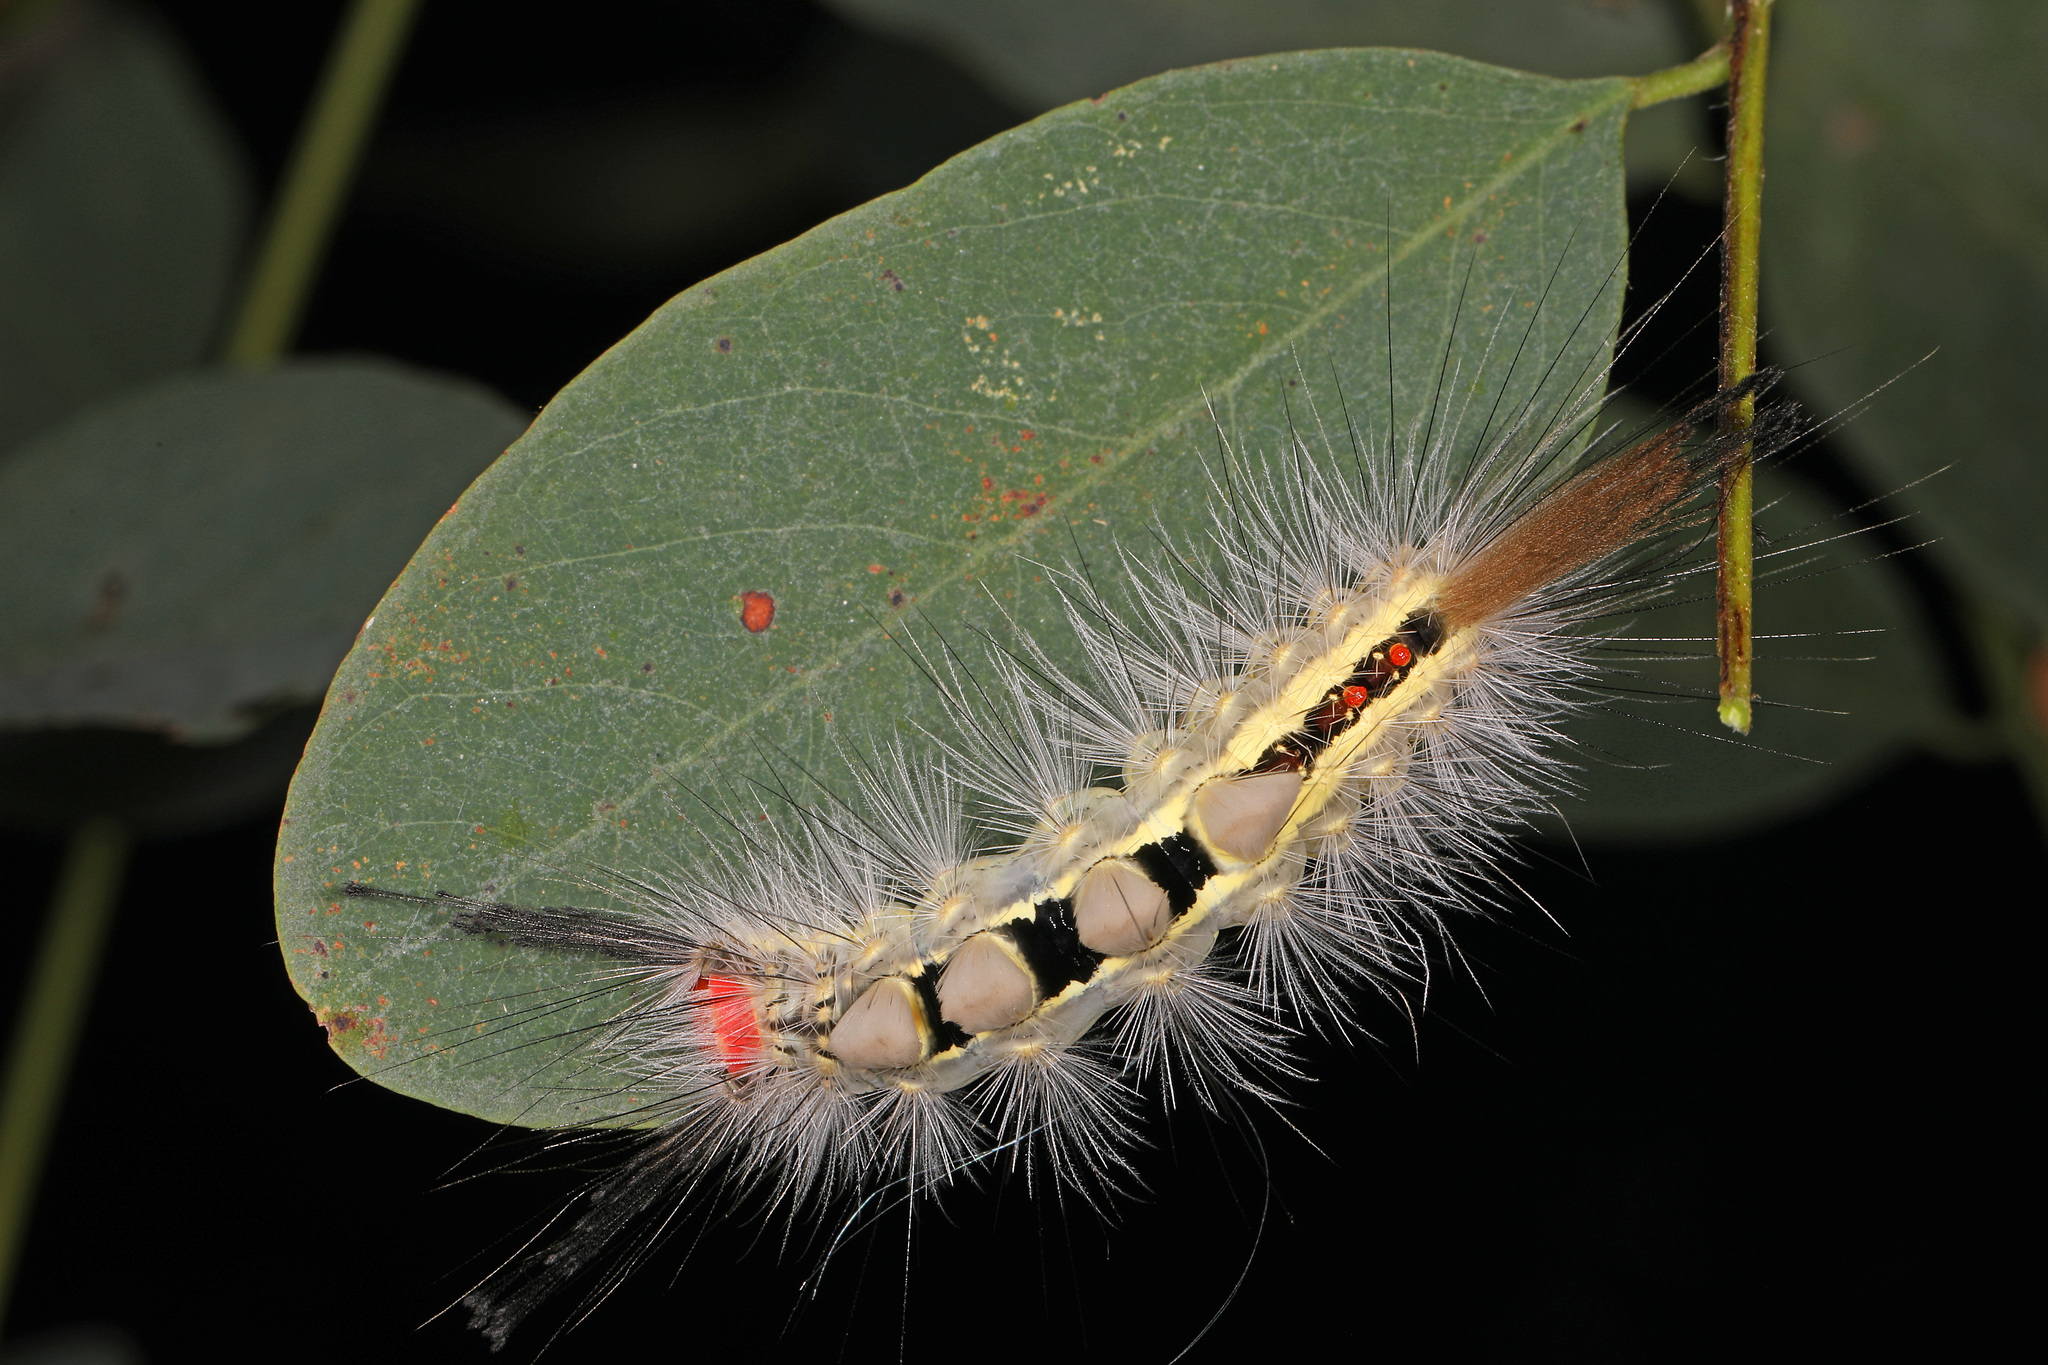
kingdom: Animalia
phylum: Arthropoda
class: Insecta
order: Lepidoptera
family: Erebidae
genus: Orgyia
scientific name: Orgyia leucostigma
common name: White-marked tussock moth
